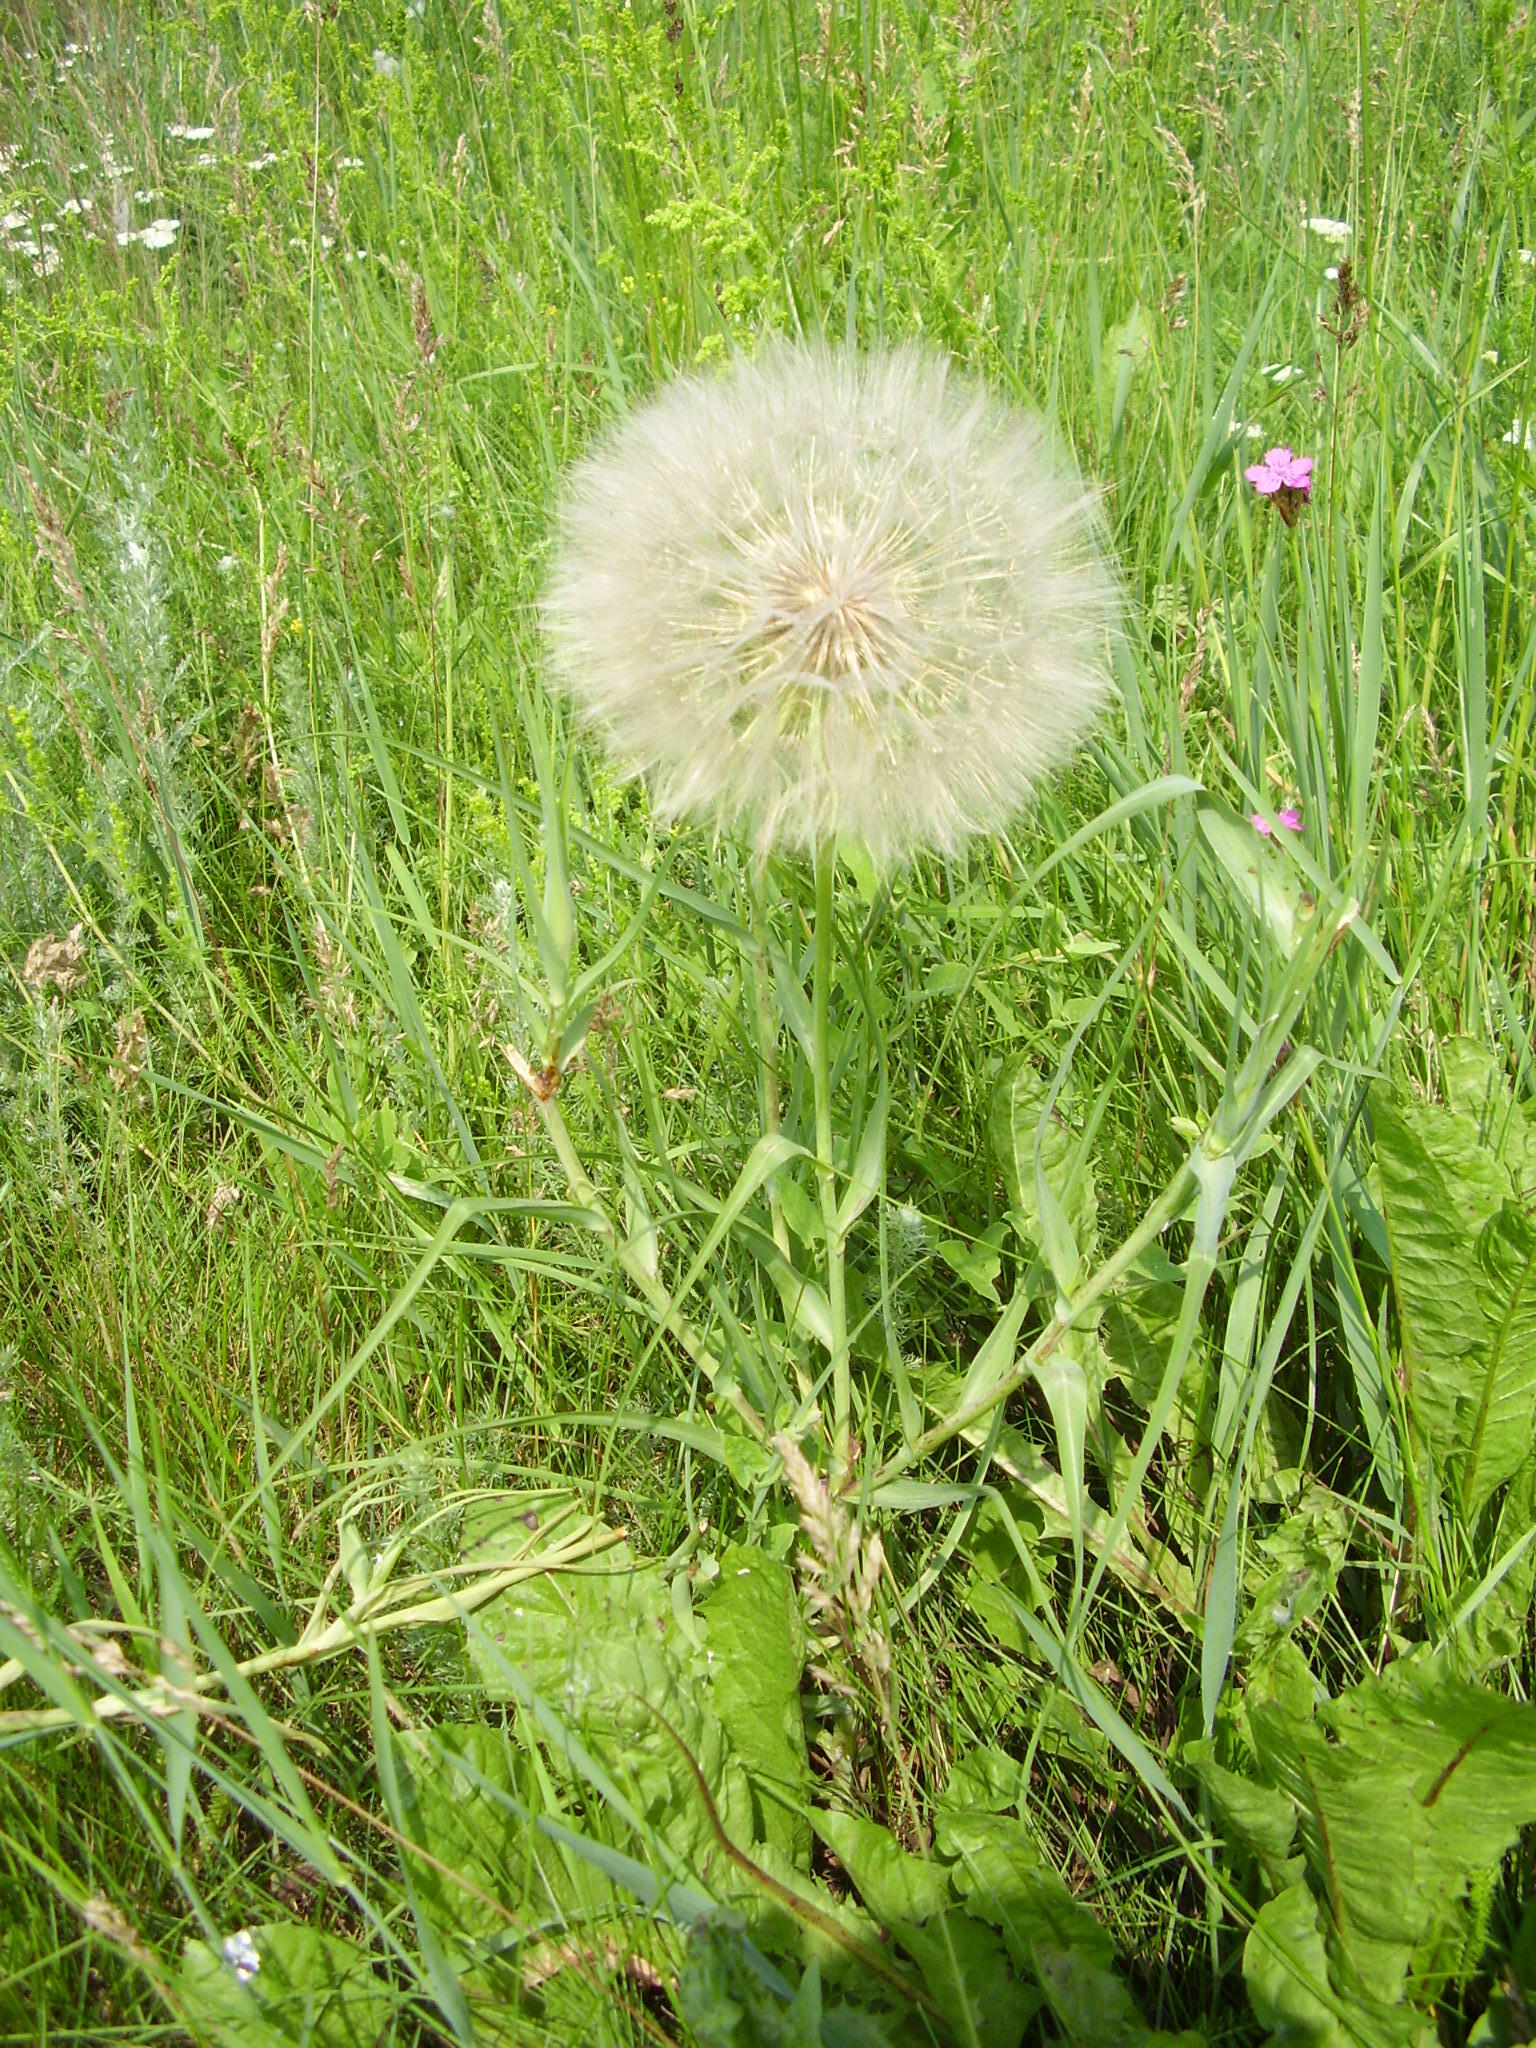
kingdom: Plantae
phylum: Tracheophyta
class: Magnoliopsida
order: Asterales
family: Asteraceae
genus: Tragopogon
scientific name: Tragopogon dubius
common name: Yellow salsify
